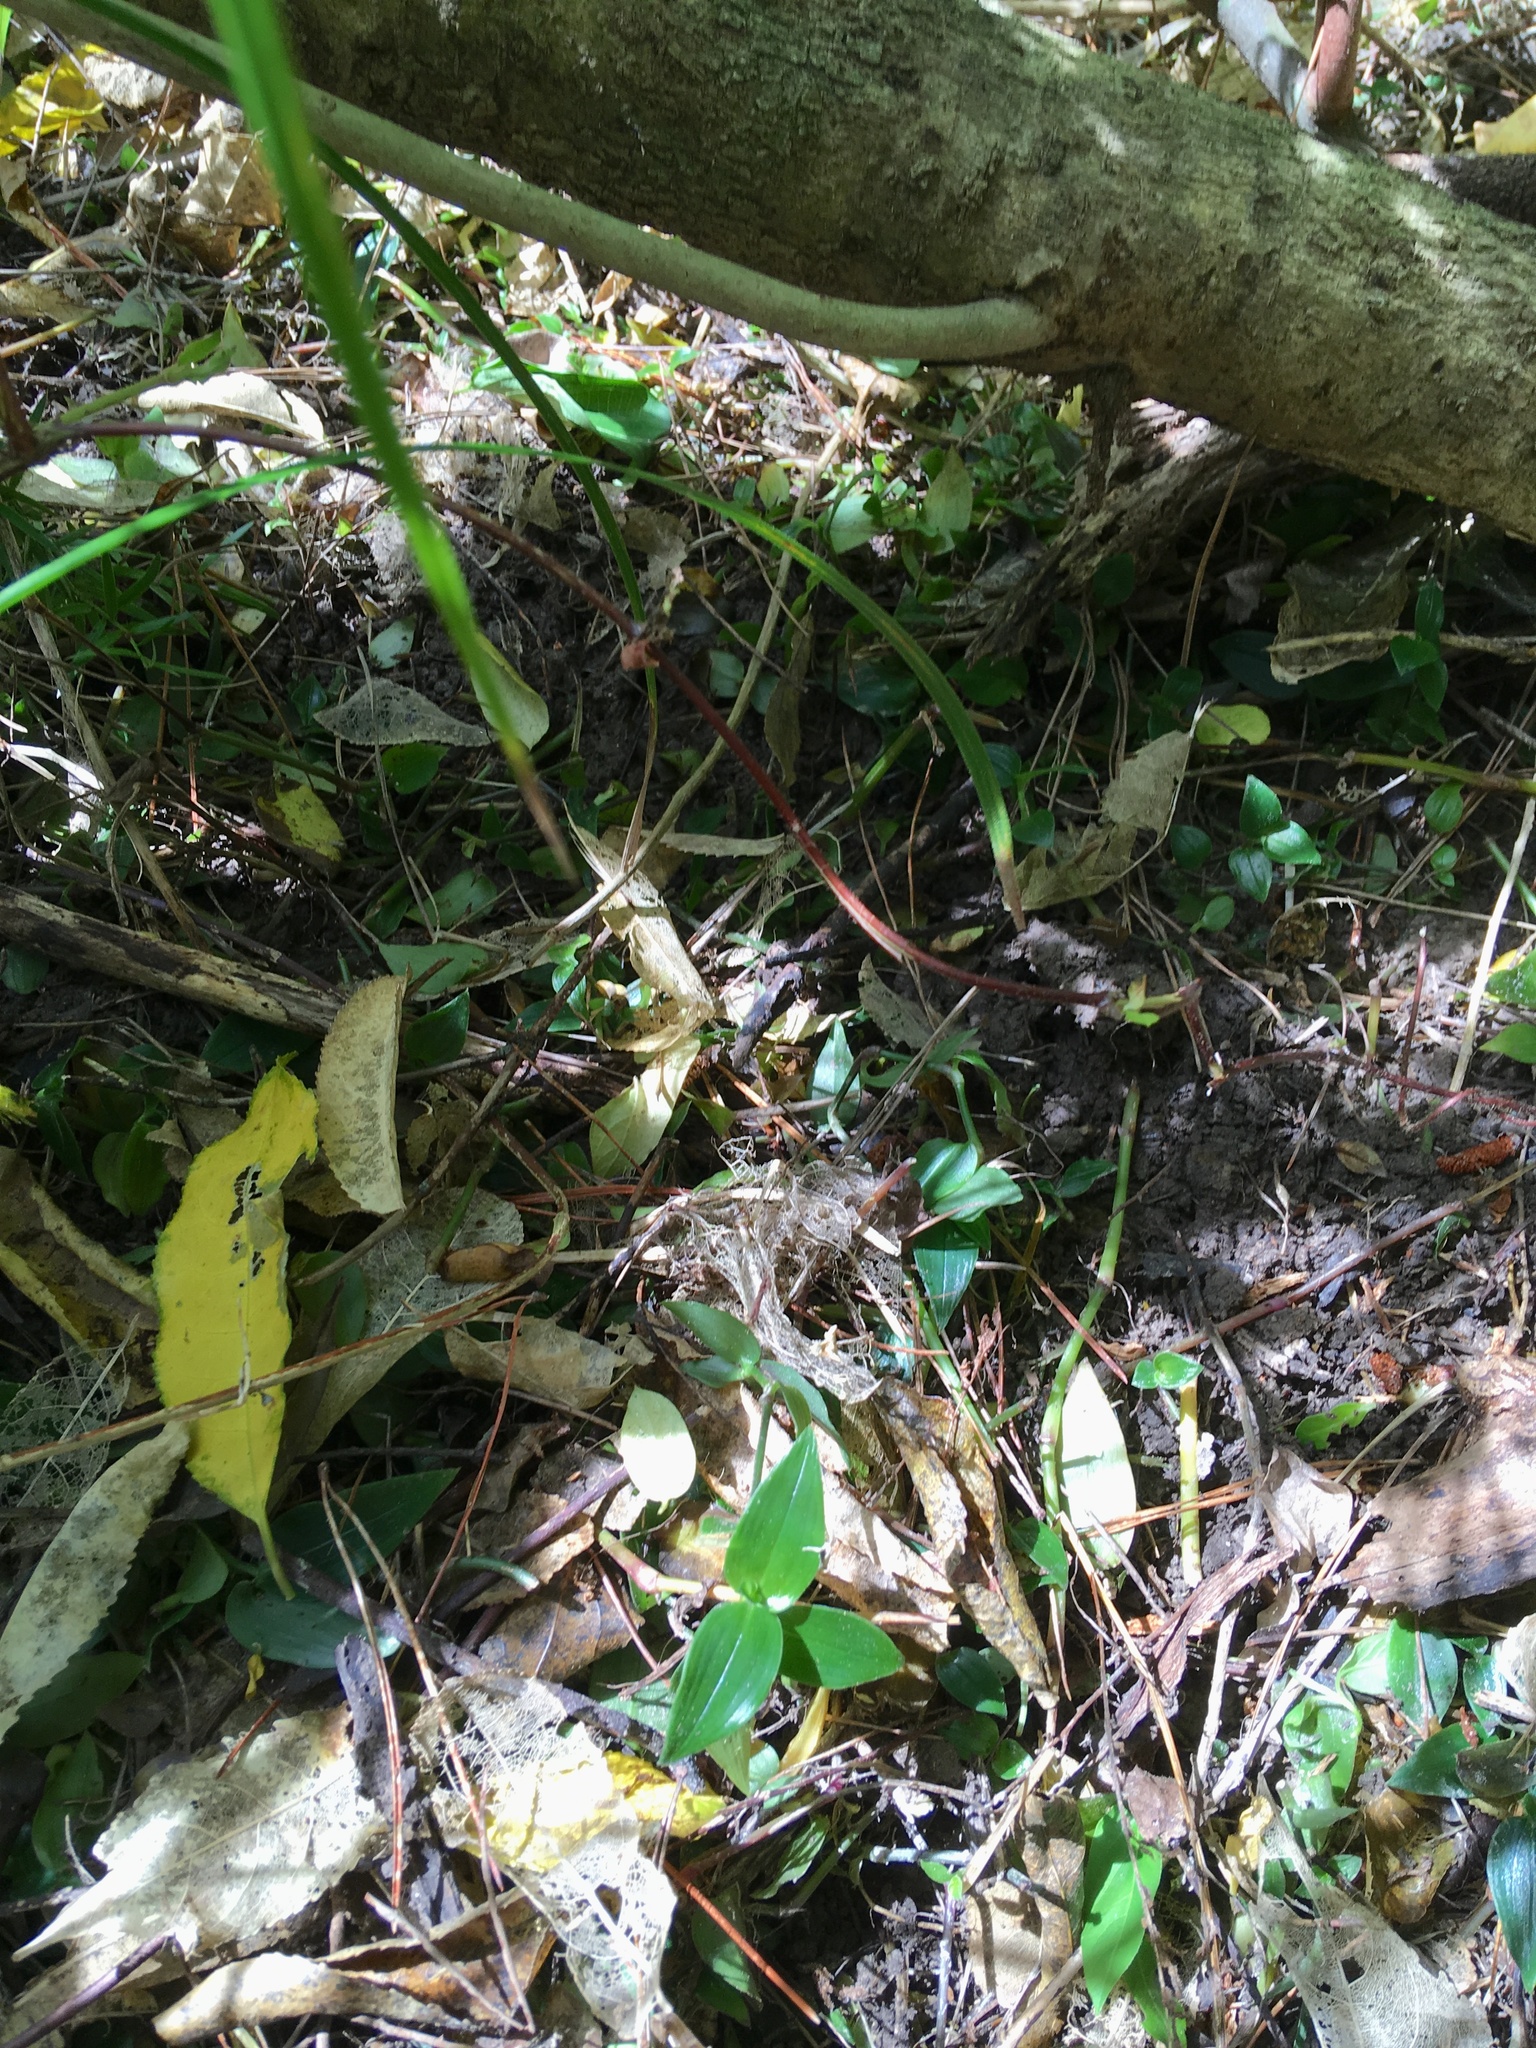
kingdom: Plantae
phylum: Tracheophyta
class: Liliopsida
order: Commelinales
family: Commelinaceae
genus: Tradescantia
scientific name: Tradescantia fluminensis
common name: Wandering-jew
